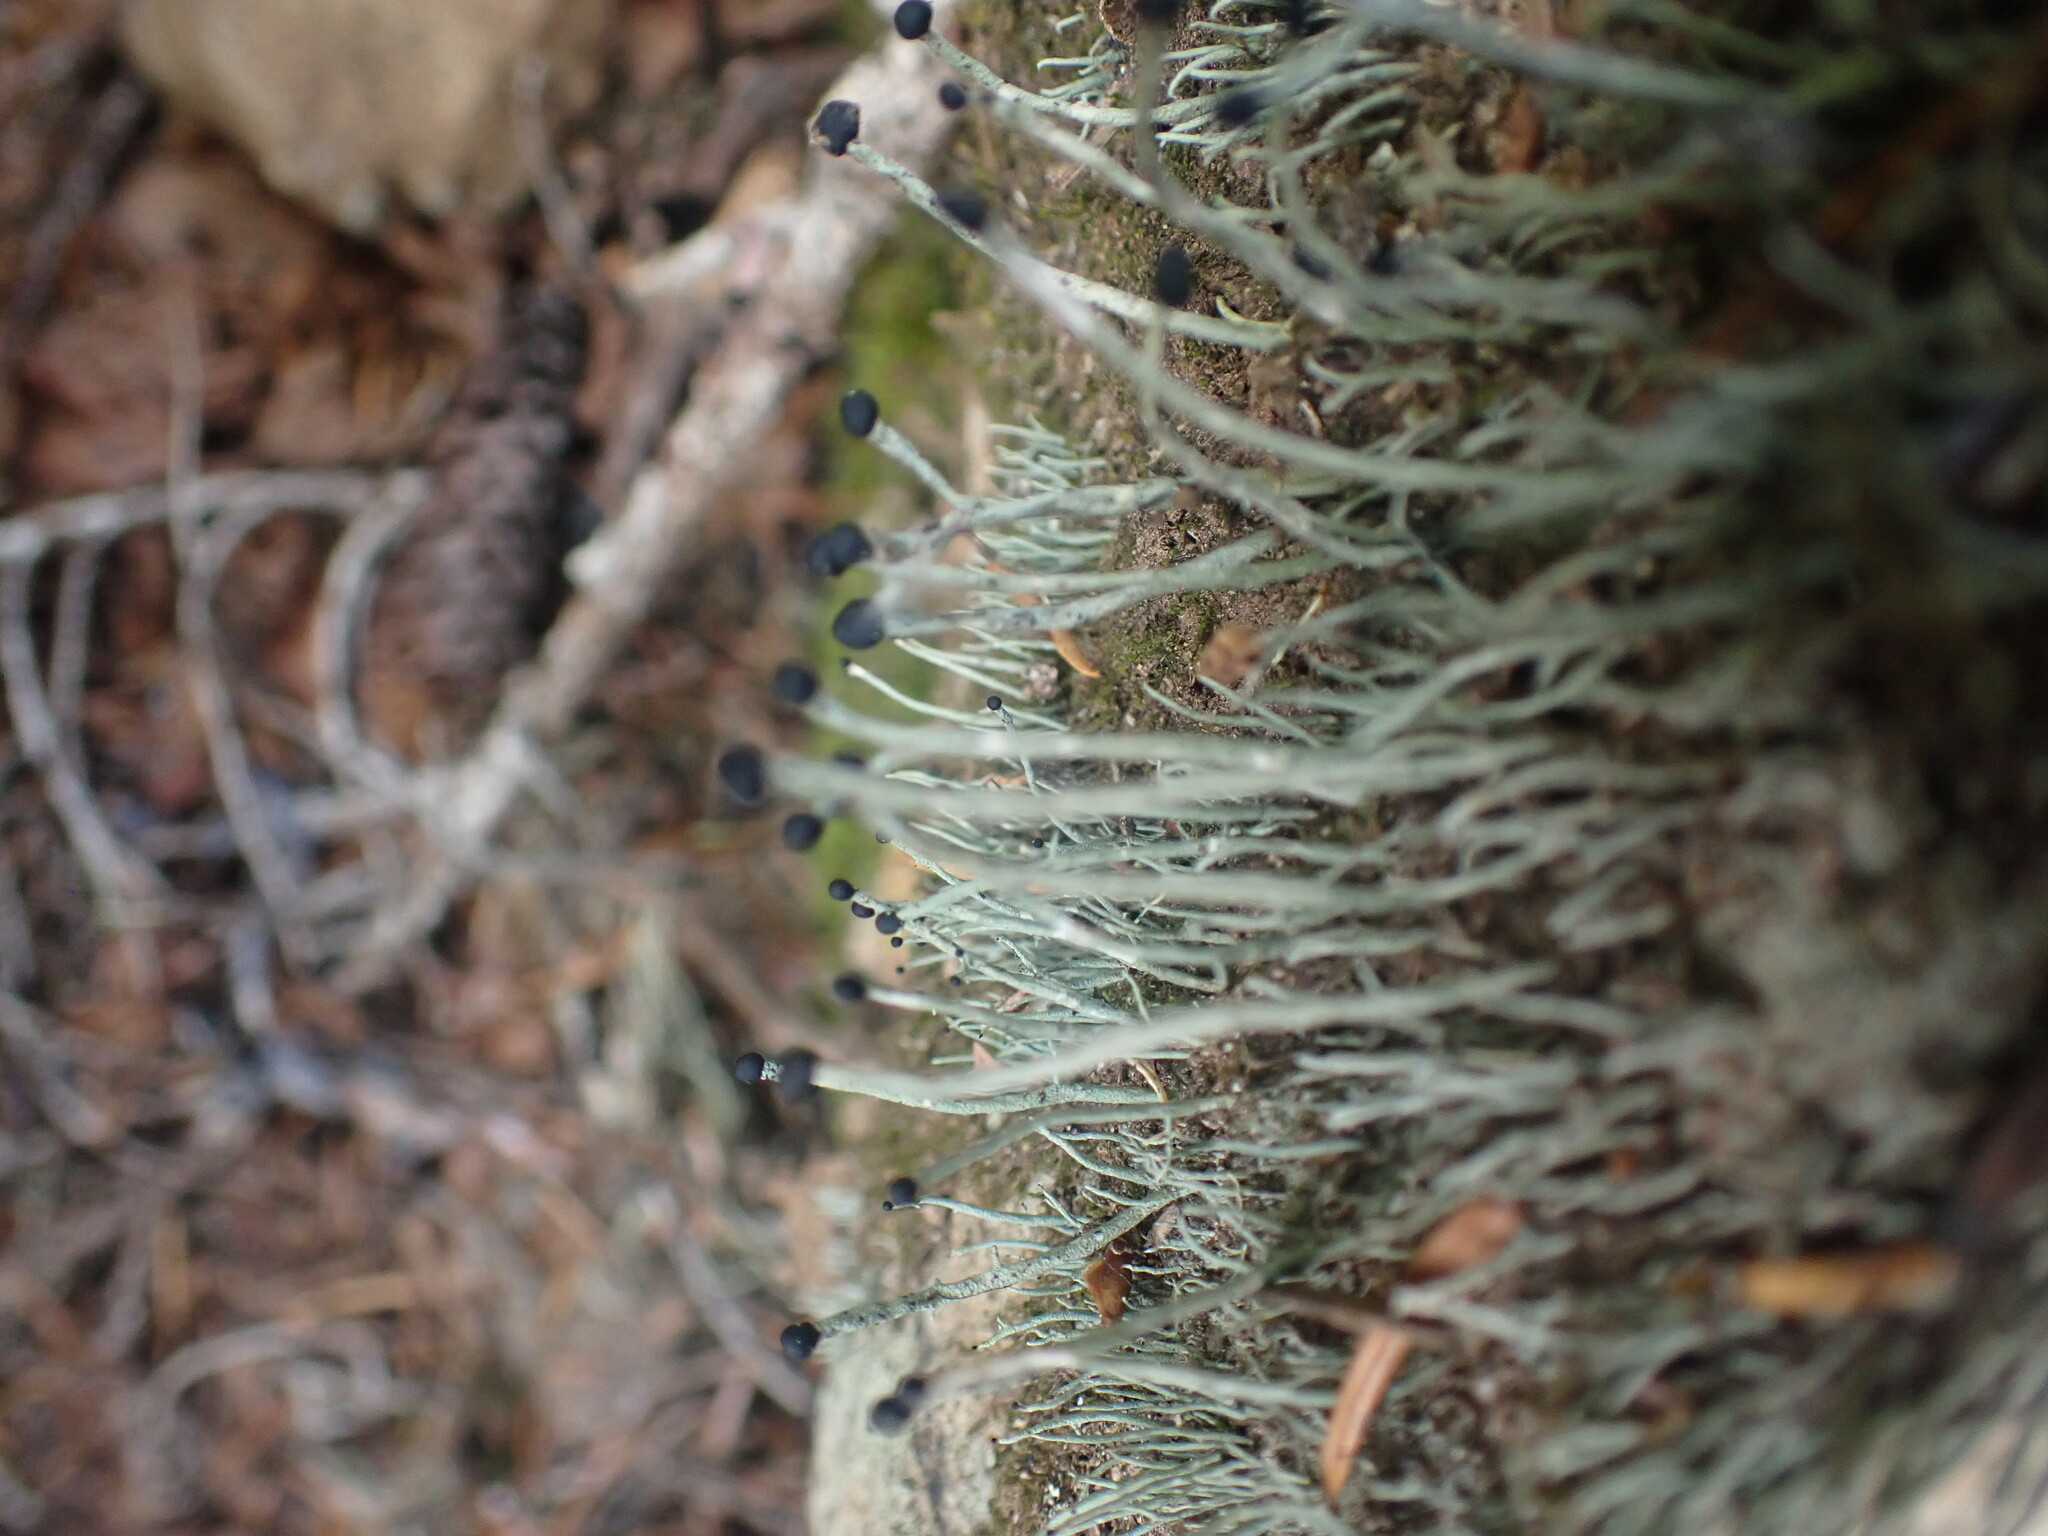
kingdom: Fungi
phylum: Ascomycota
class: Lecanoromycetes
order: Lecanorales
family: Cladoniaceae
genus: Pilophorus
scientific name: Pilophorus acicularis
